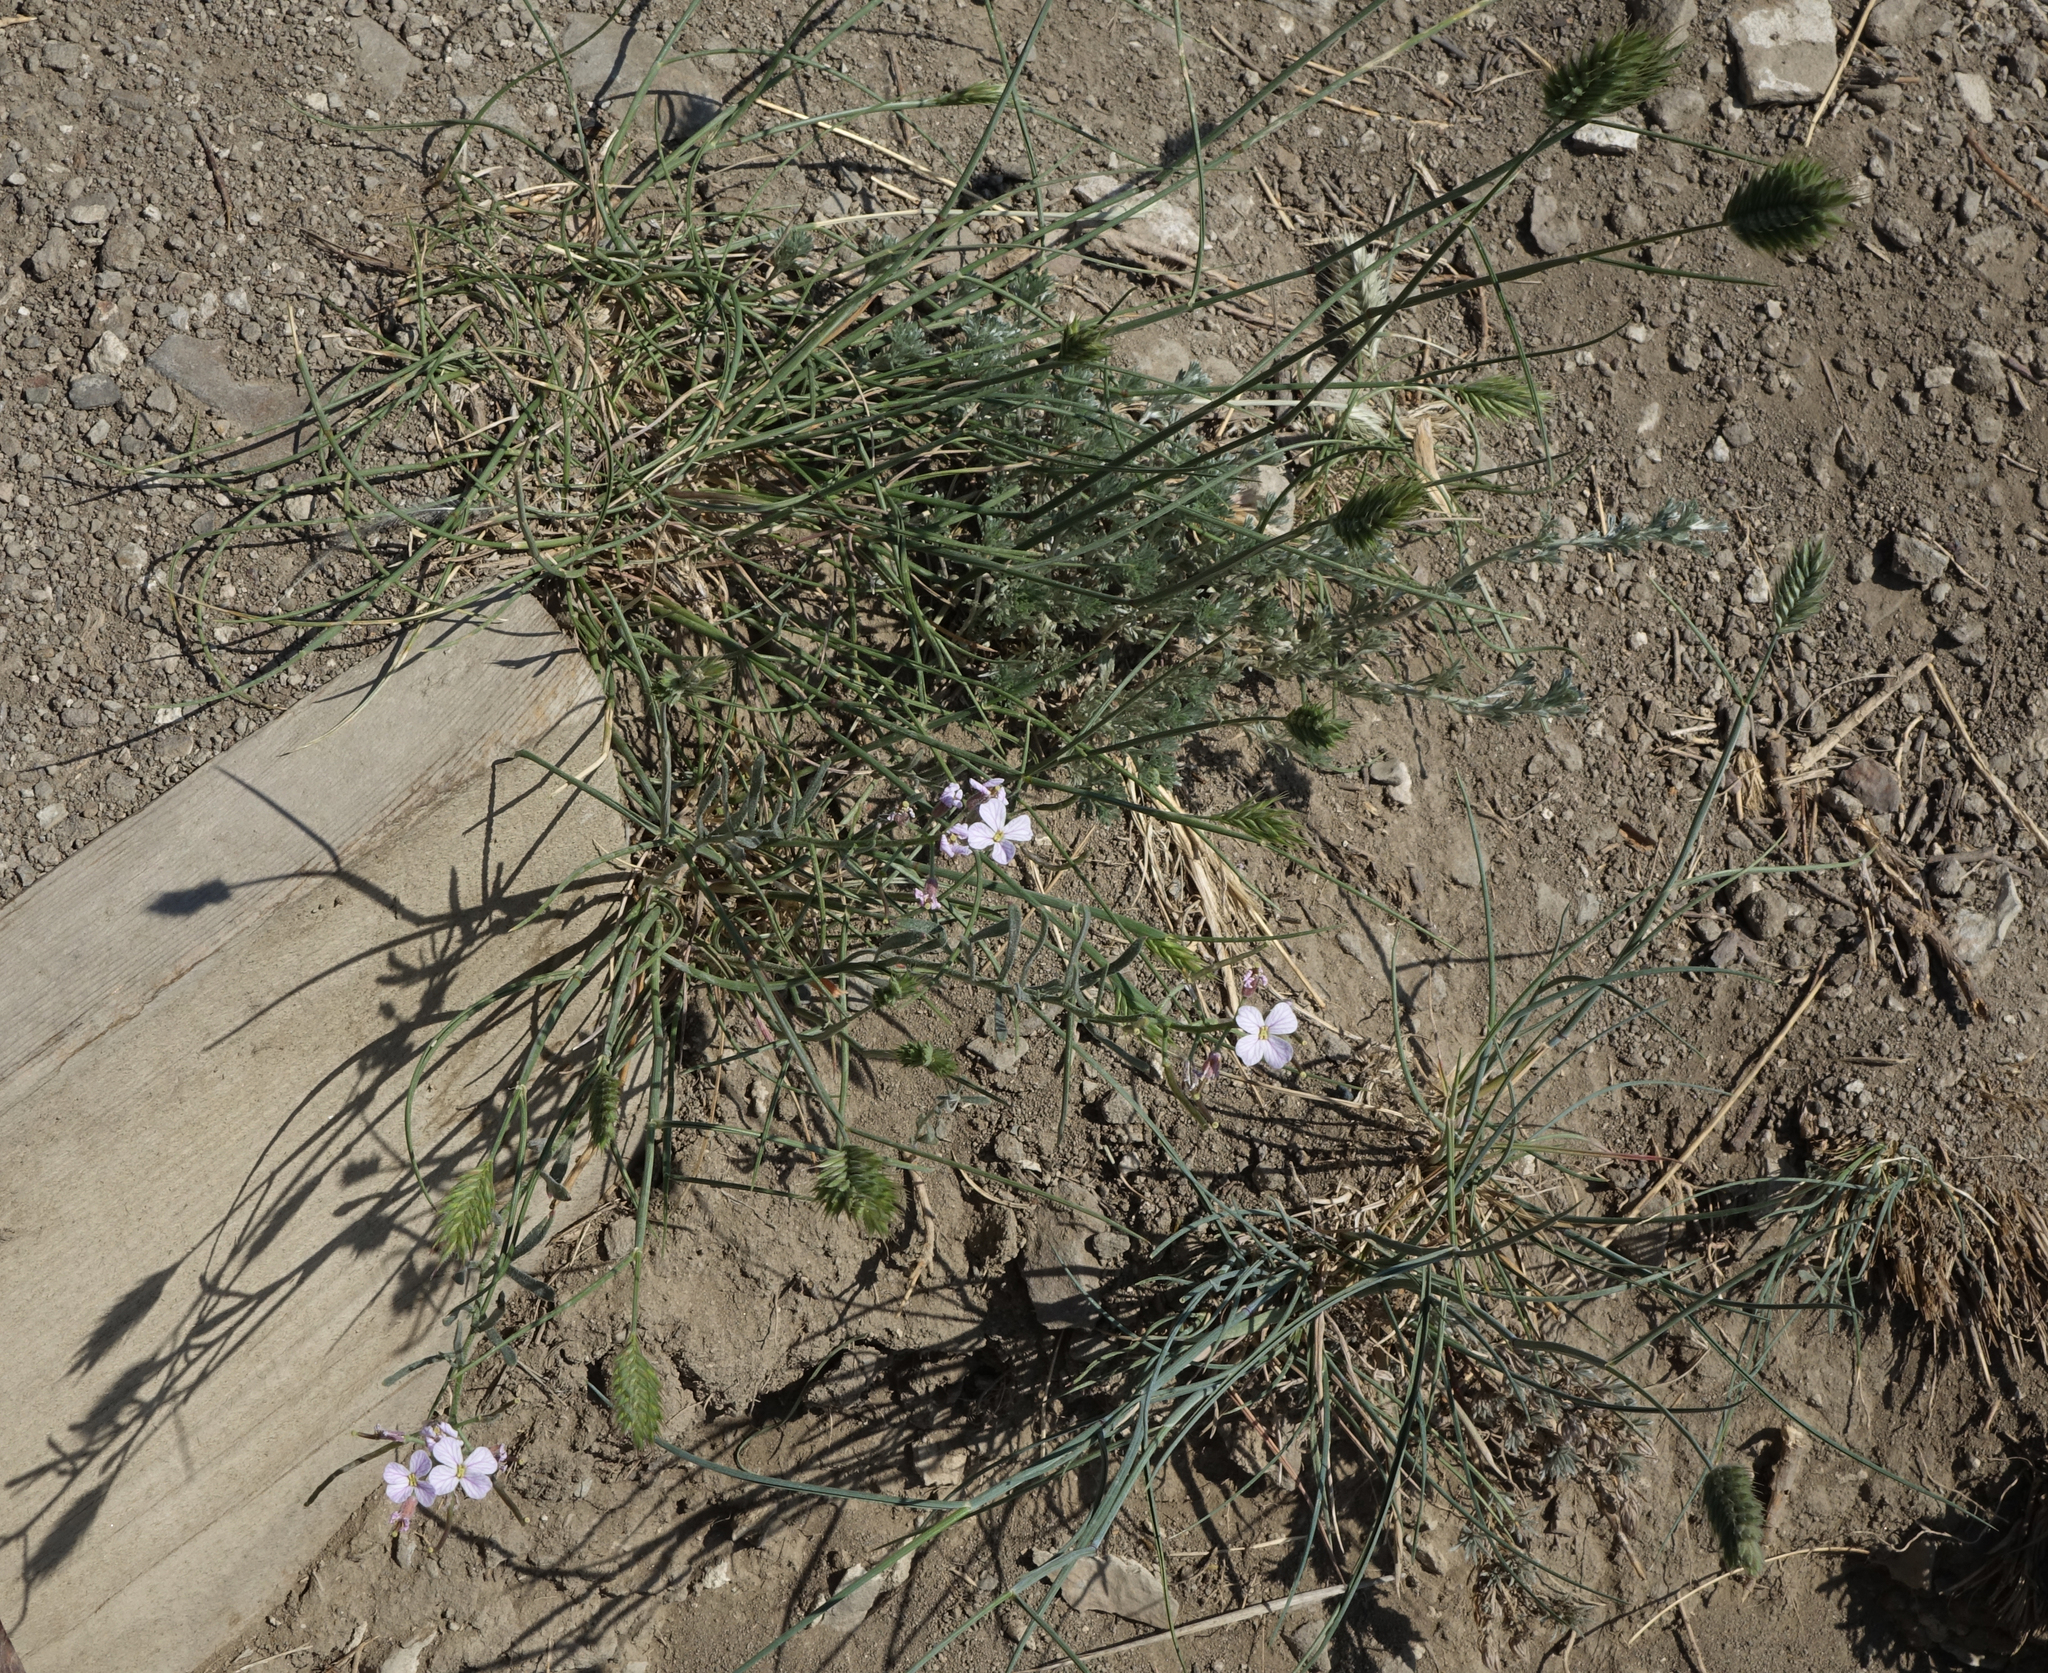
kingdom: Plantae
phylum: Tracheophyta
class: Magnoliopsida
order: Brassicales
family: Brassicaceae
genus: Dontostemon
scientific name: Dontostemon perennis
